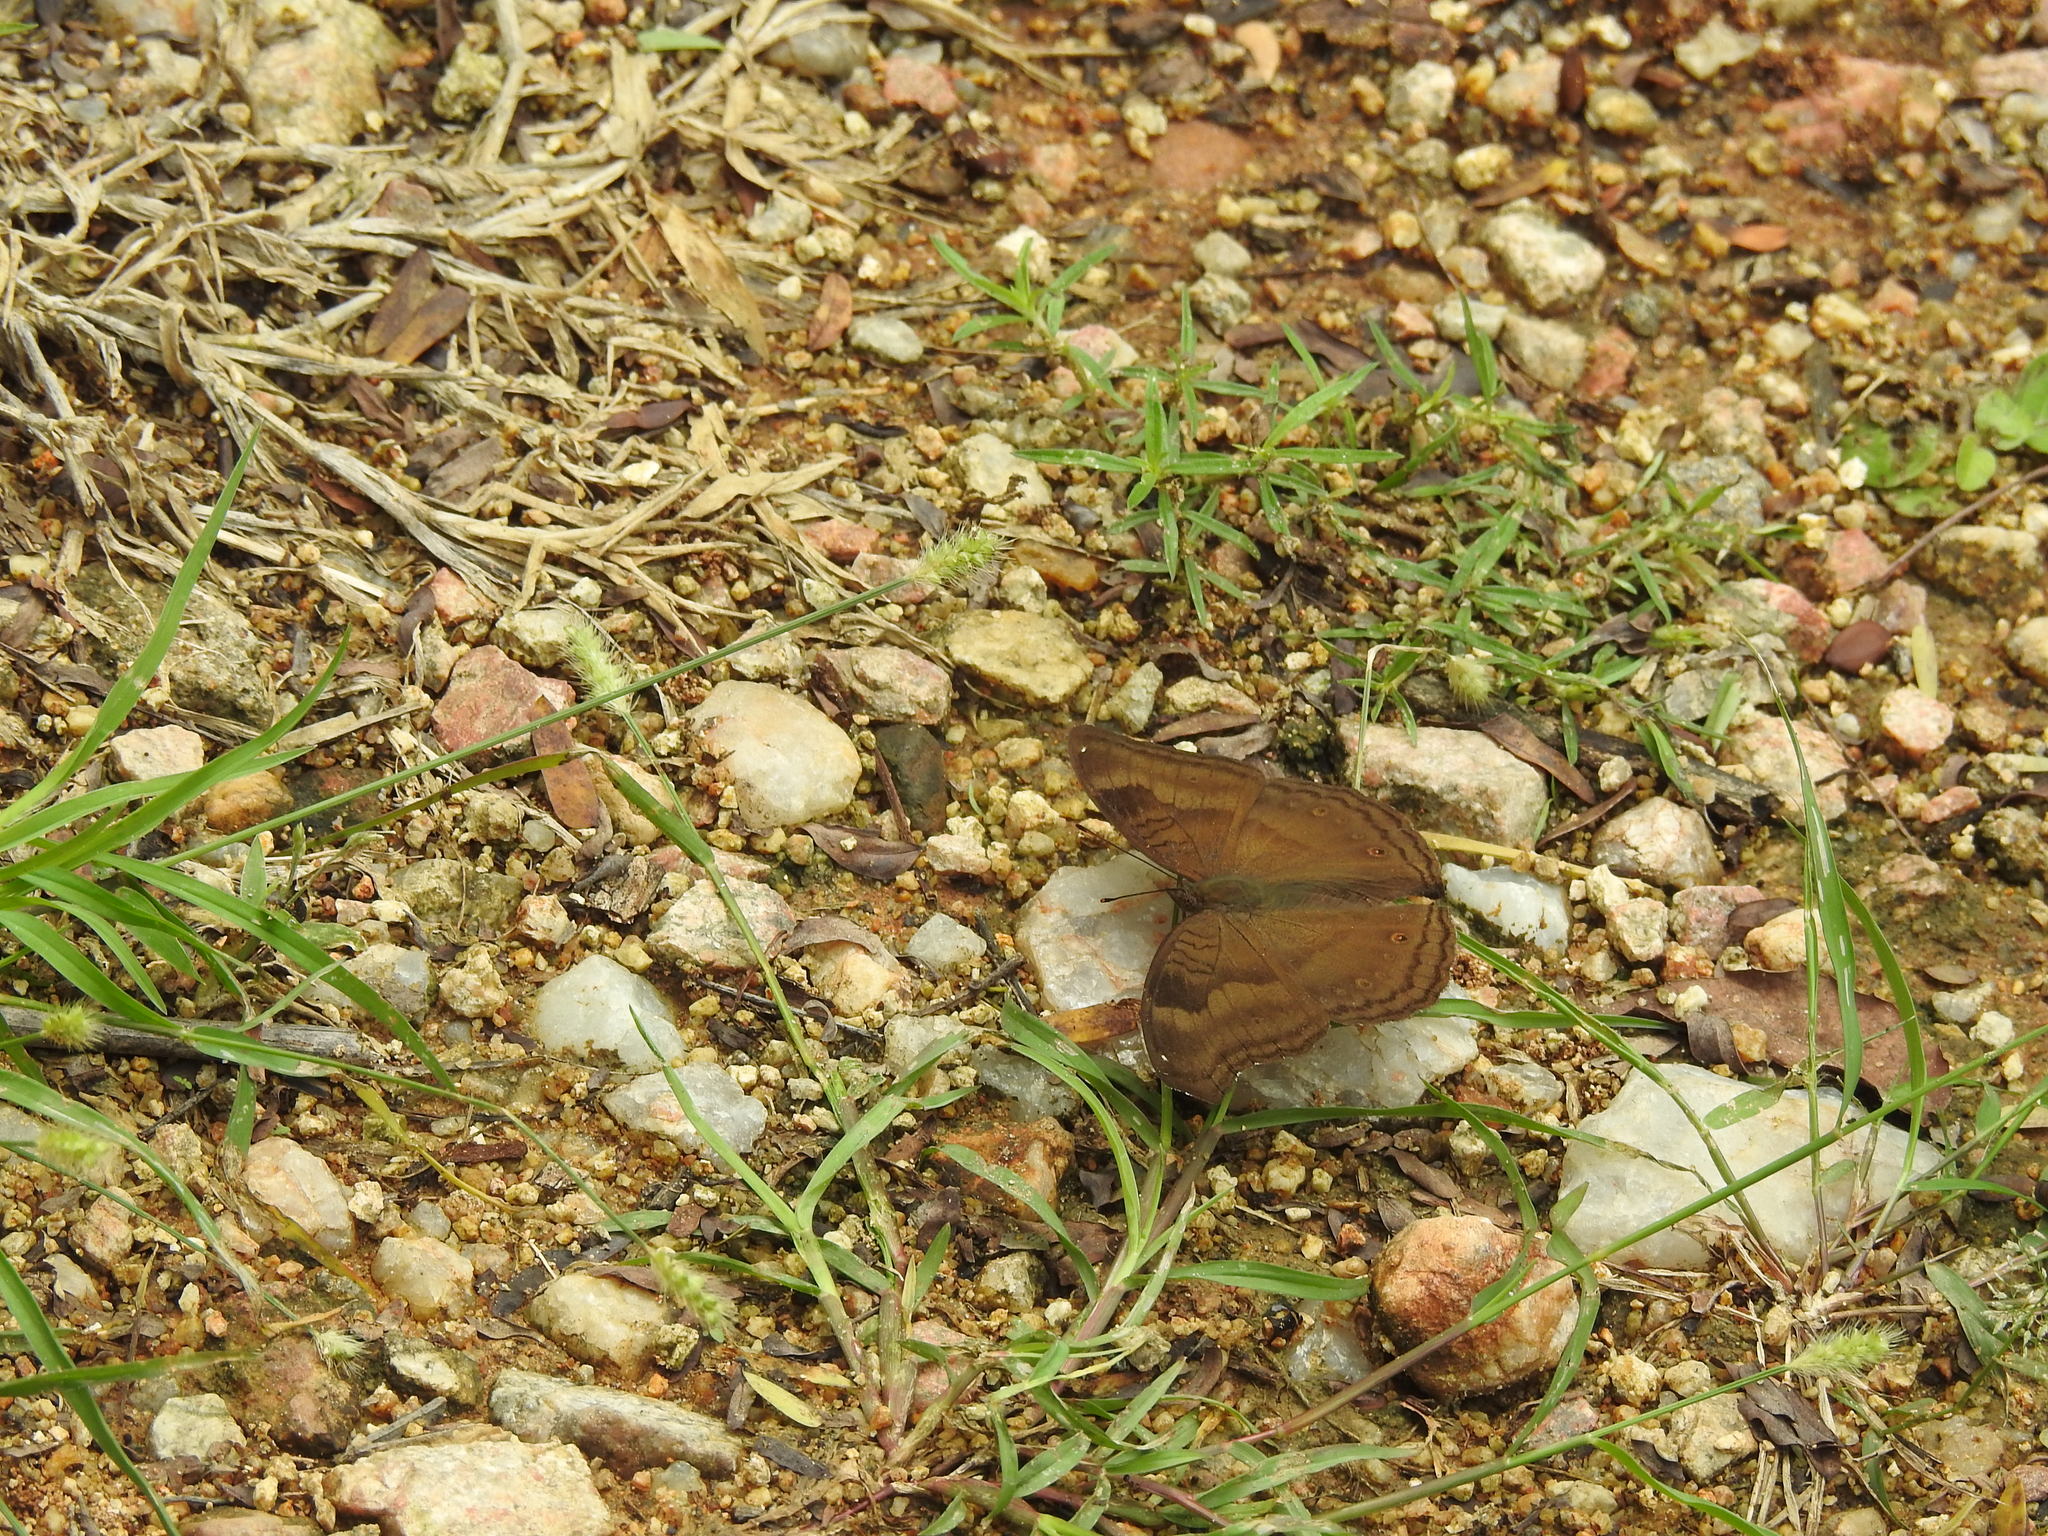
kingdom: Animalia
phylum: Arthropoda
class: Insecta
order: Lepidoptera
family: Nymphalidae
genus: Junonia
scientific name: Junonia iphita
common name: Chocolate pansy
